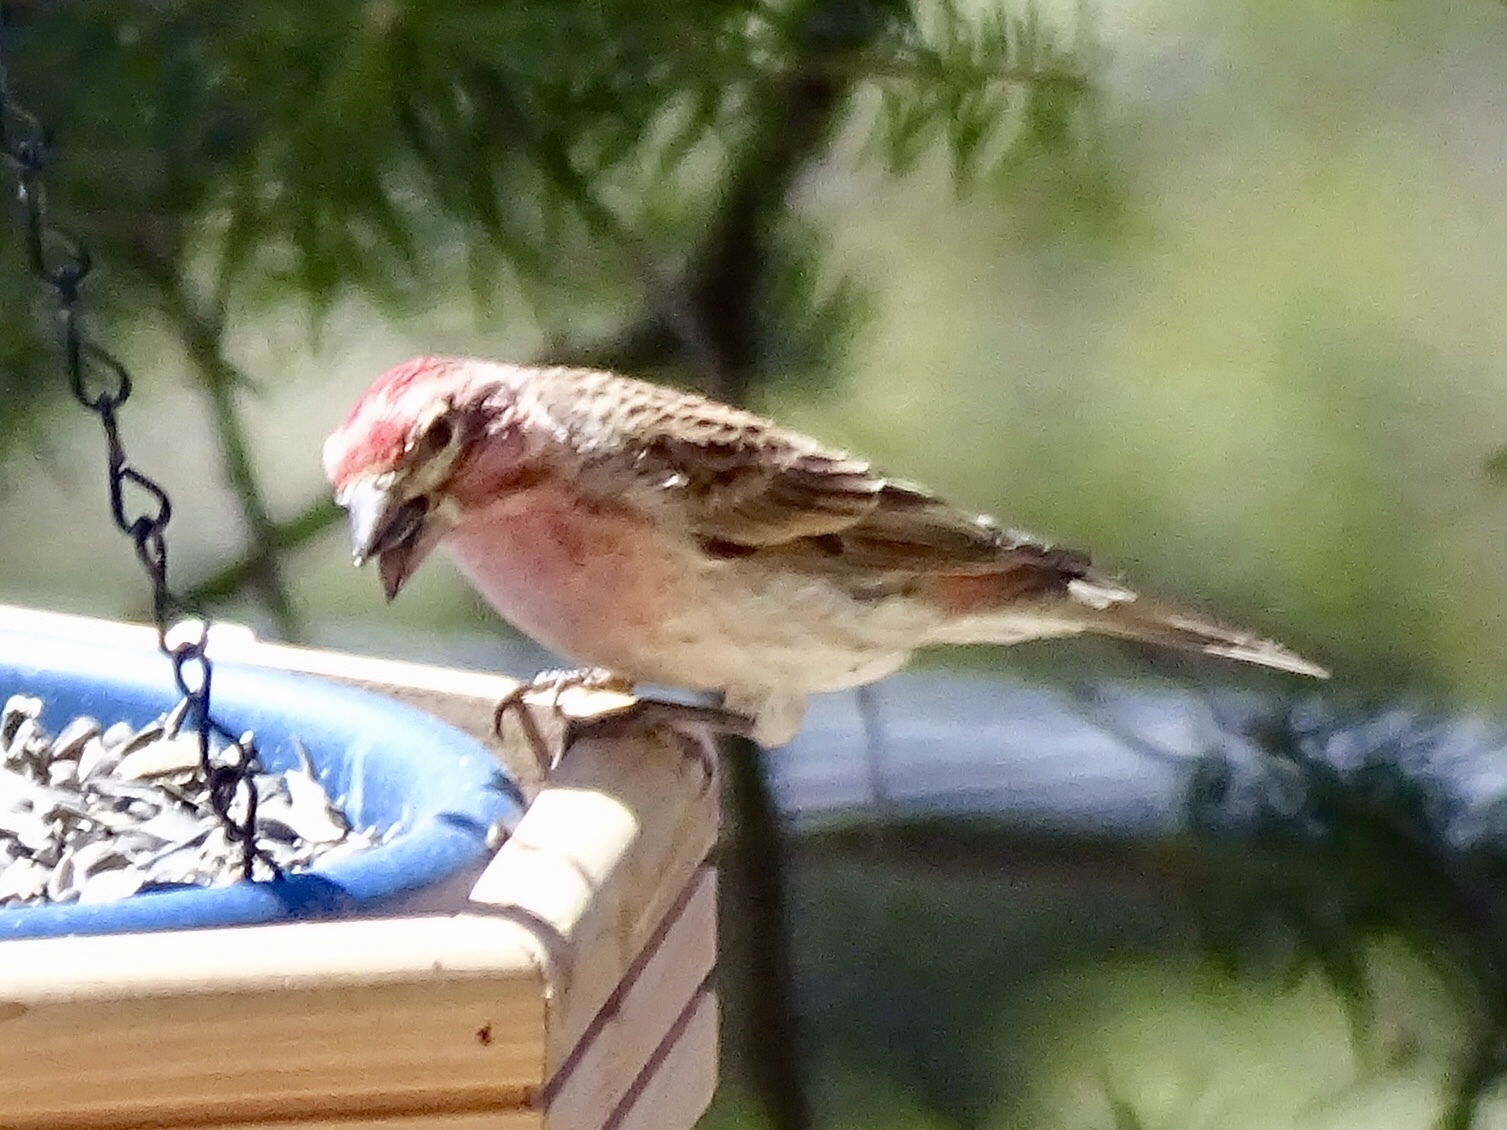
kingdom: Animalia
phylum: Chordata
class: Aves
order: Passeriformes
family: Fringillidae
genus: Haemorhous
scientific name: Haemorhous cassinii
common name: Cassin's finch
